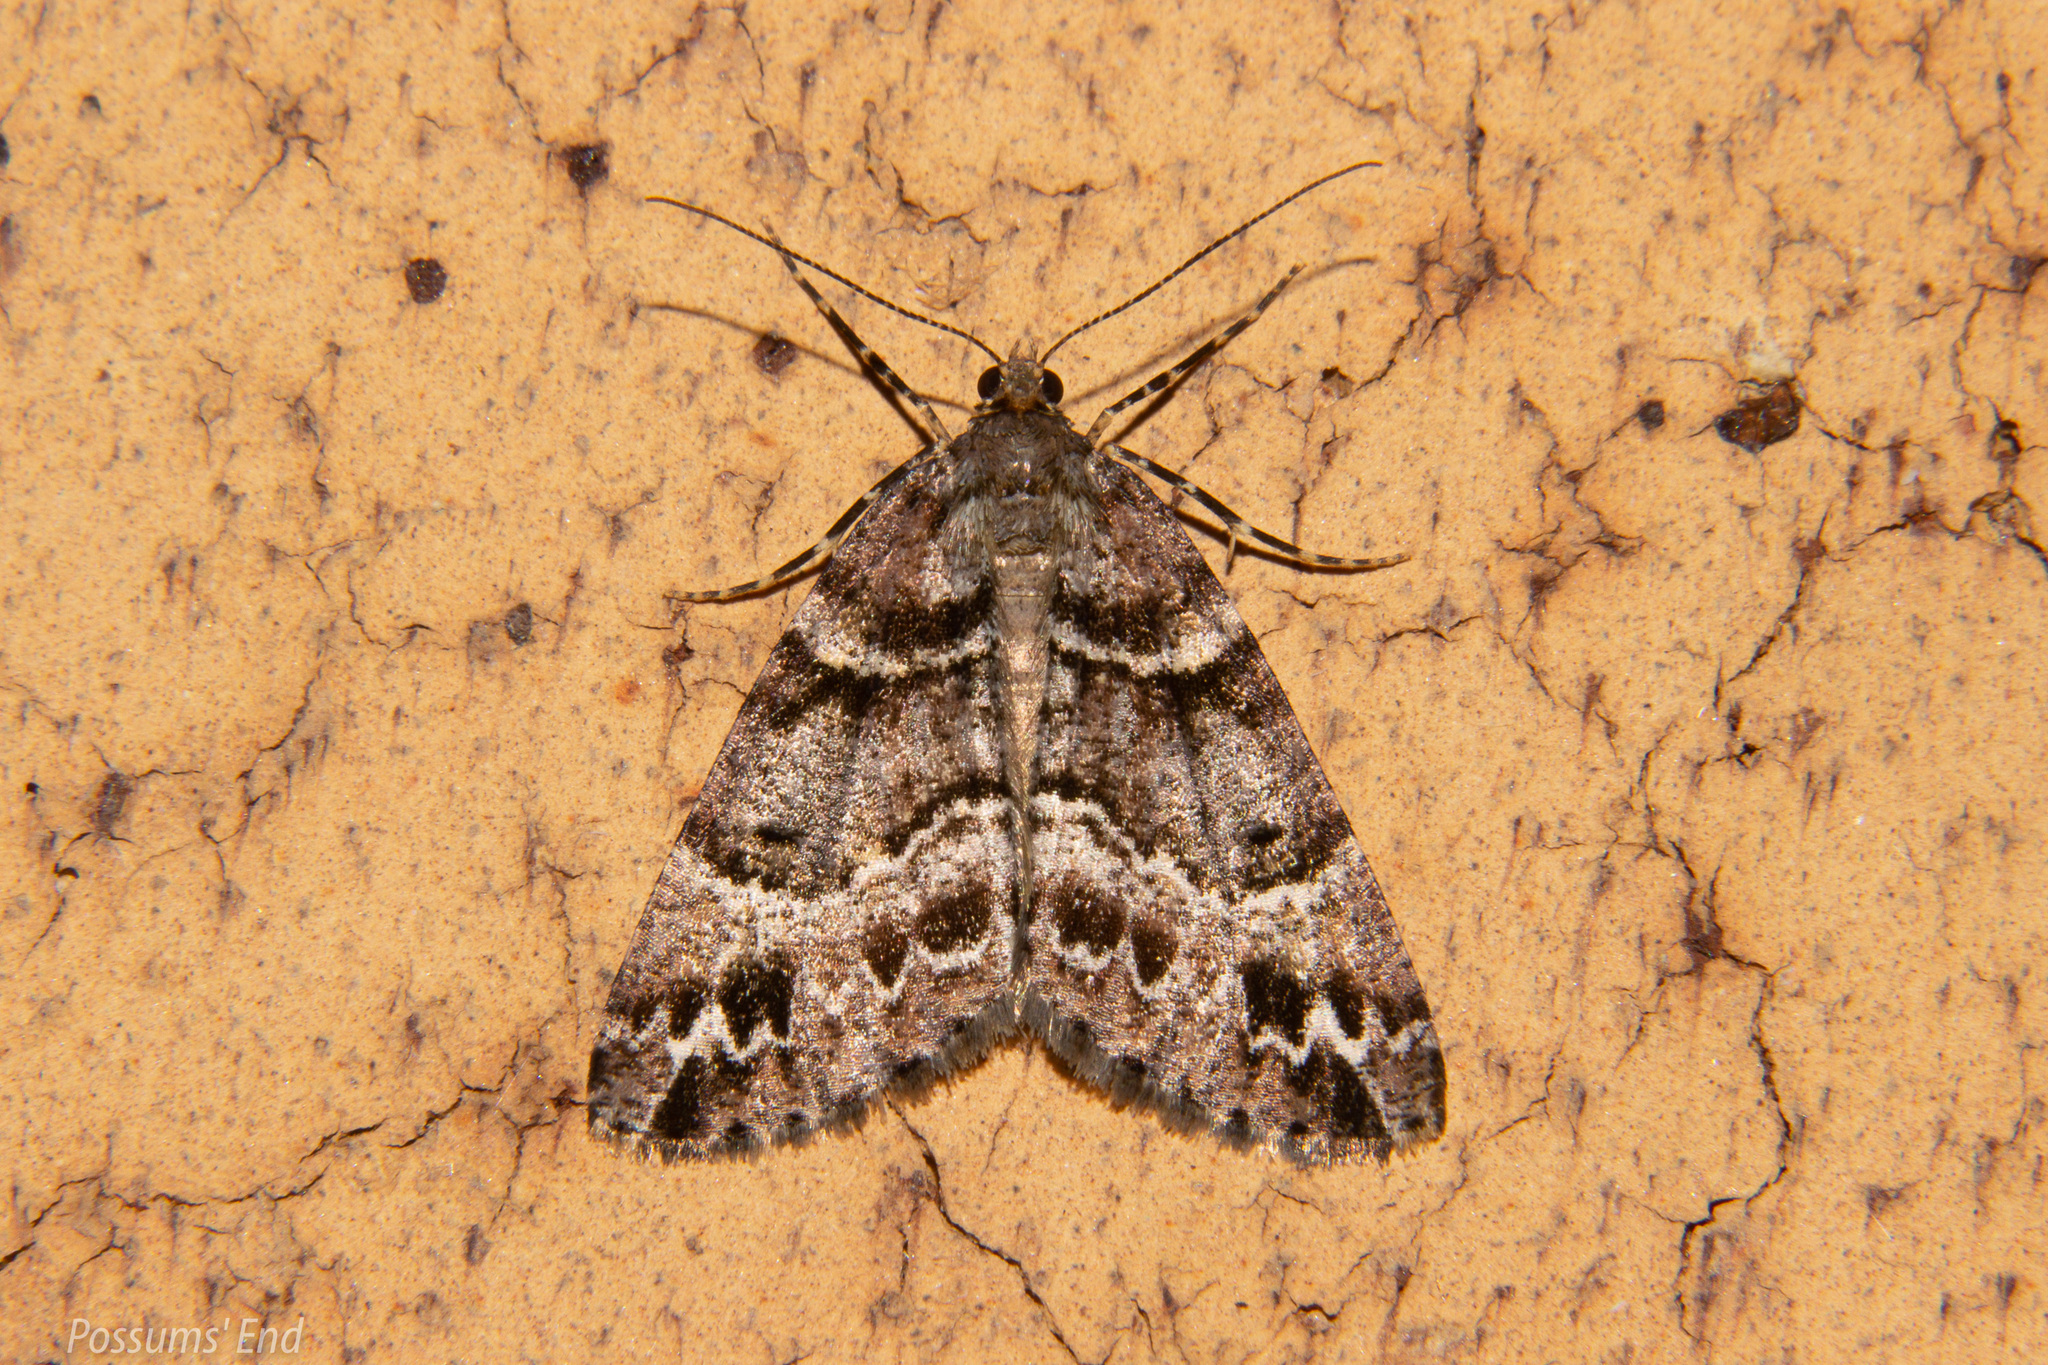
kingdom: Animalia
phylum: Arthropoda
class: Insecta
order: Lepidoptera
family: Geometridae
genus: Pseudocoremia
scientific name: Pseudocoremia productata
